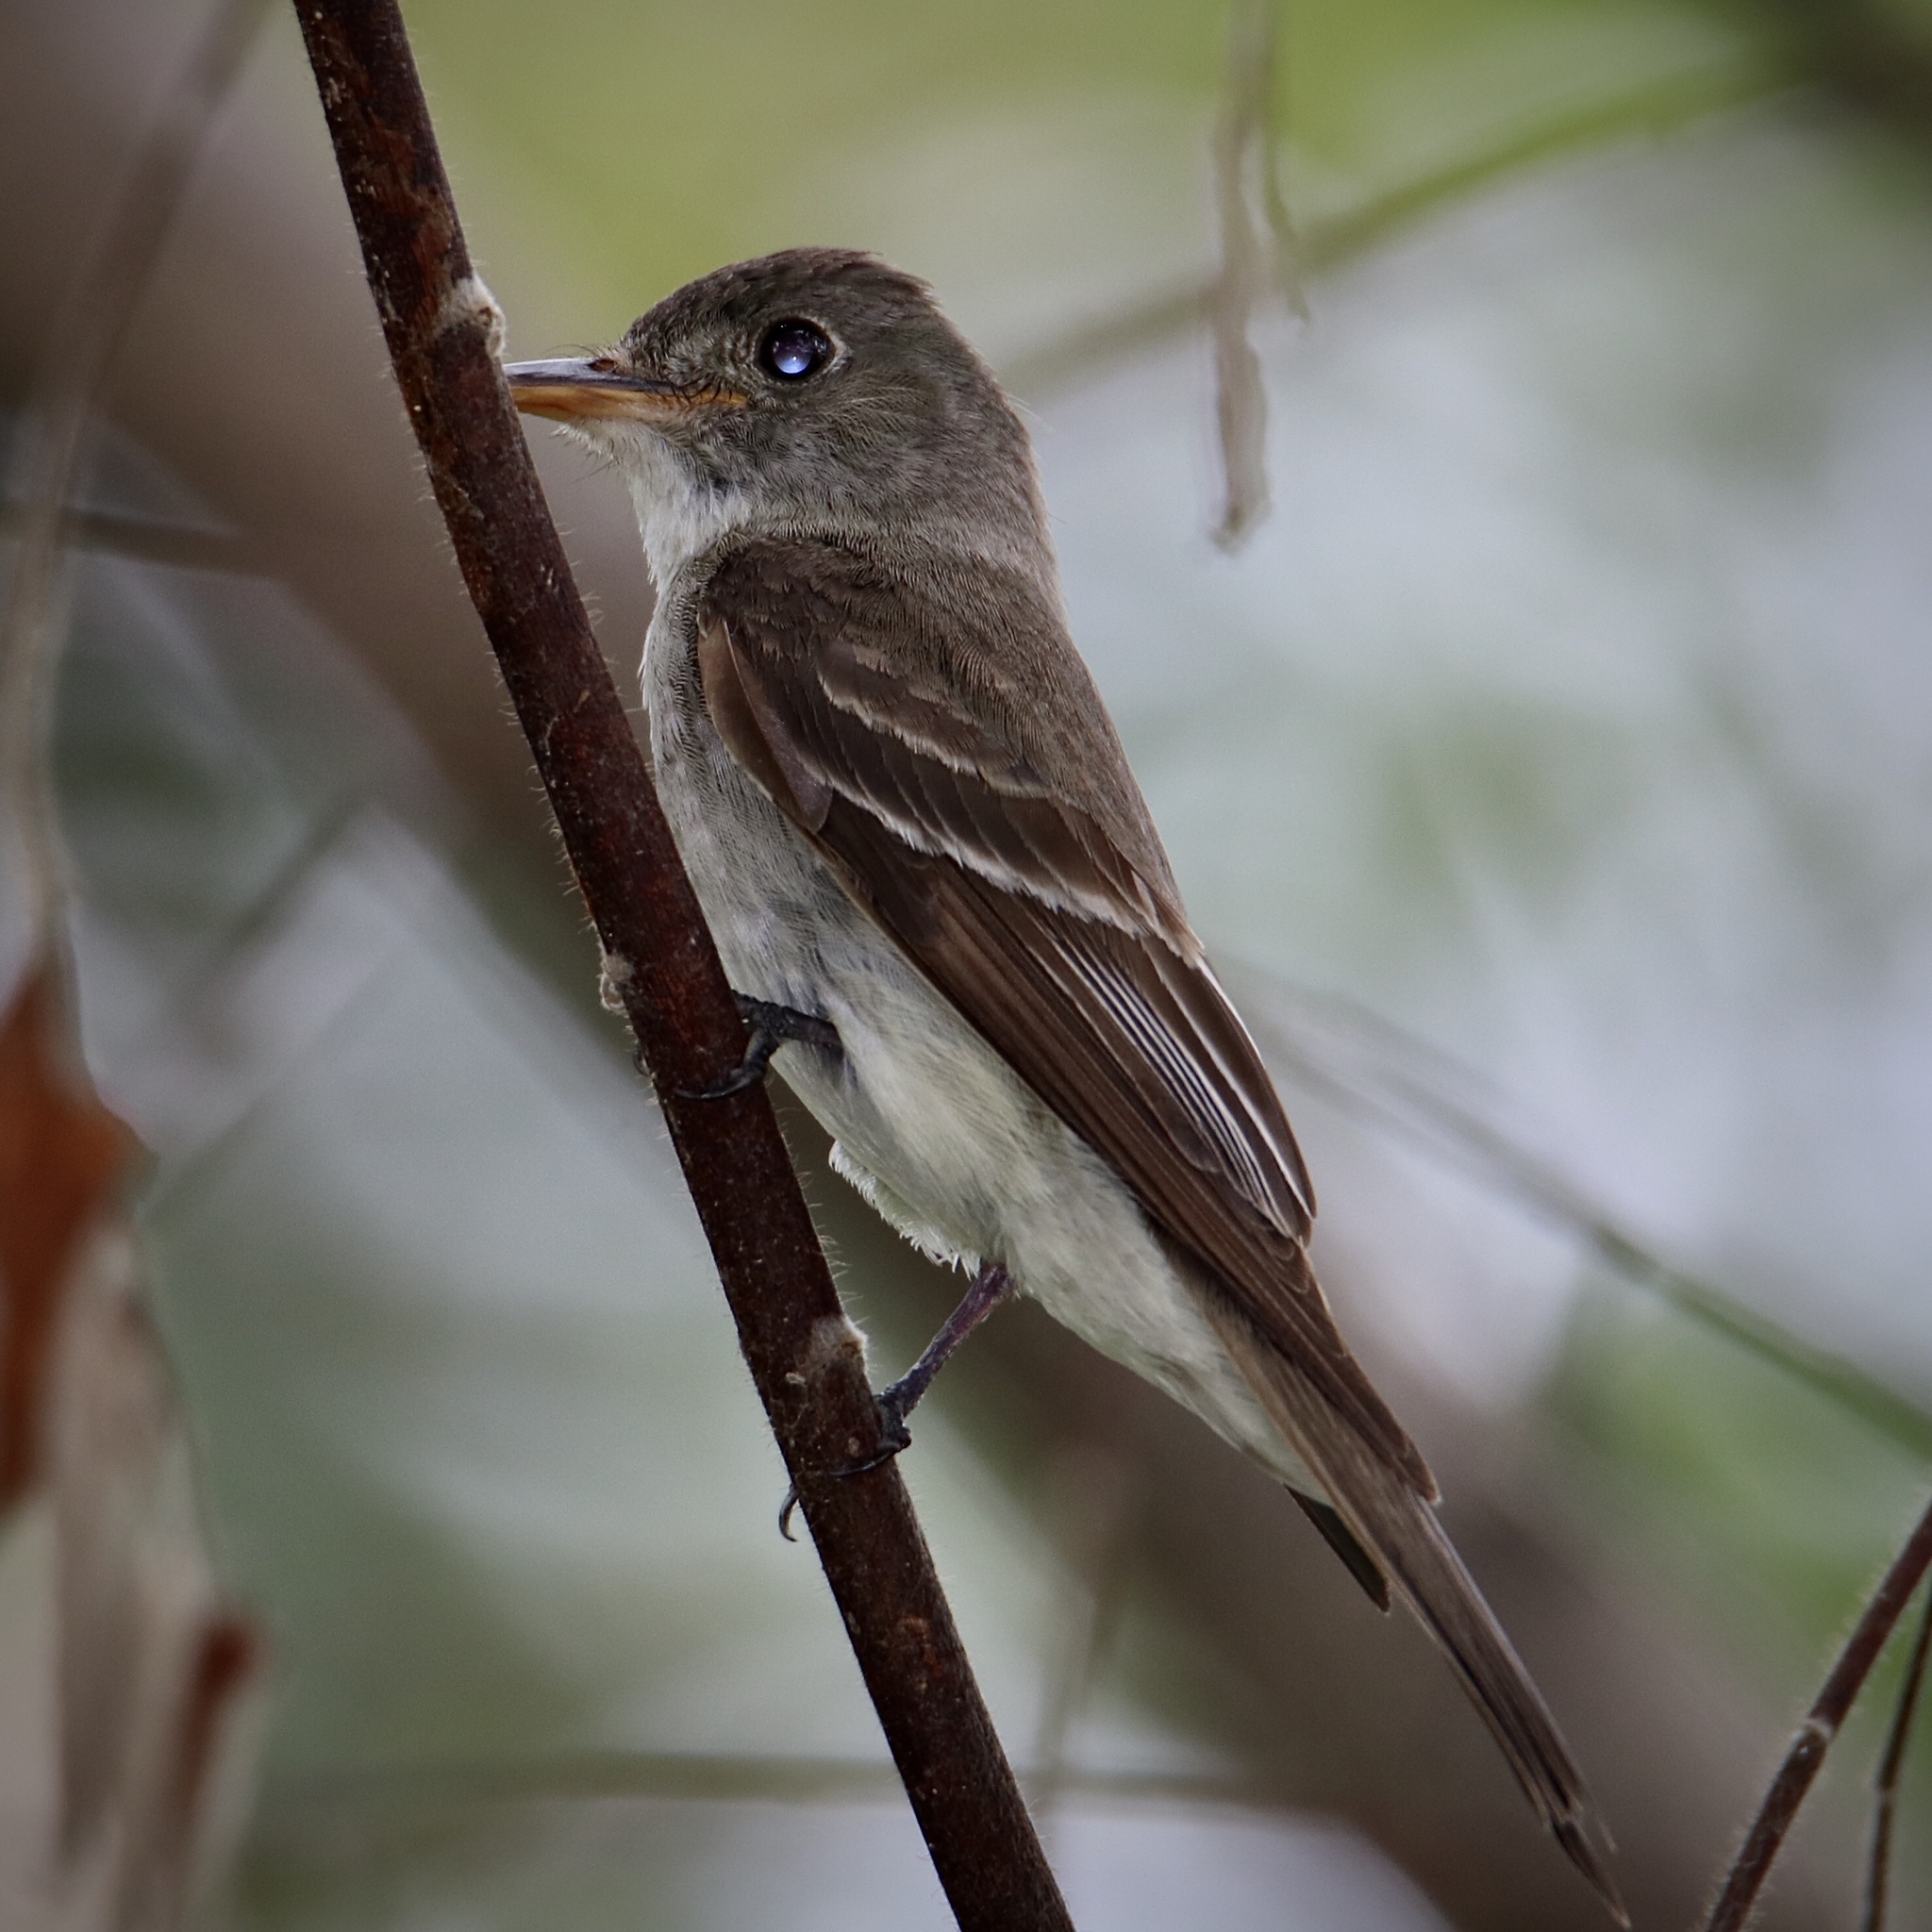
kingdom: Animalia
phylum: Chordata
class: Aves
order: Passeriformes
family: Tyrannidae
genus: Contopus
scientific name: Contopus virens
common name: Eastern wood-pewee
